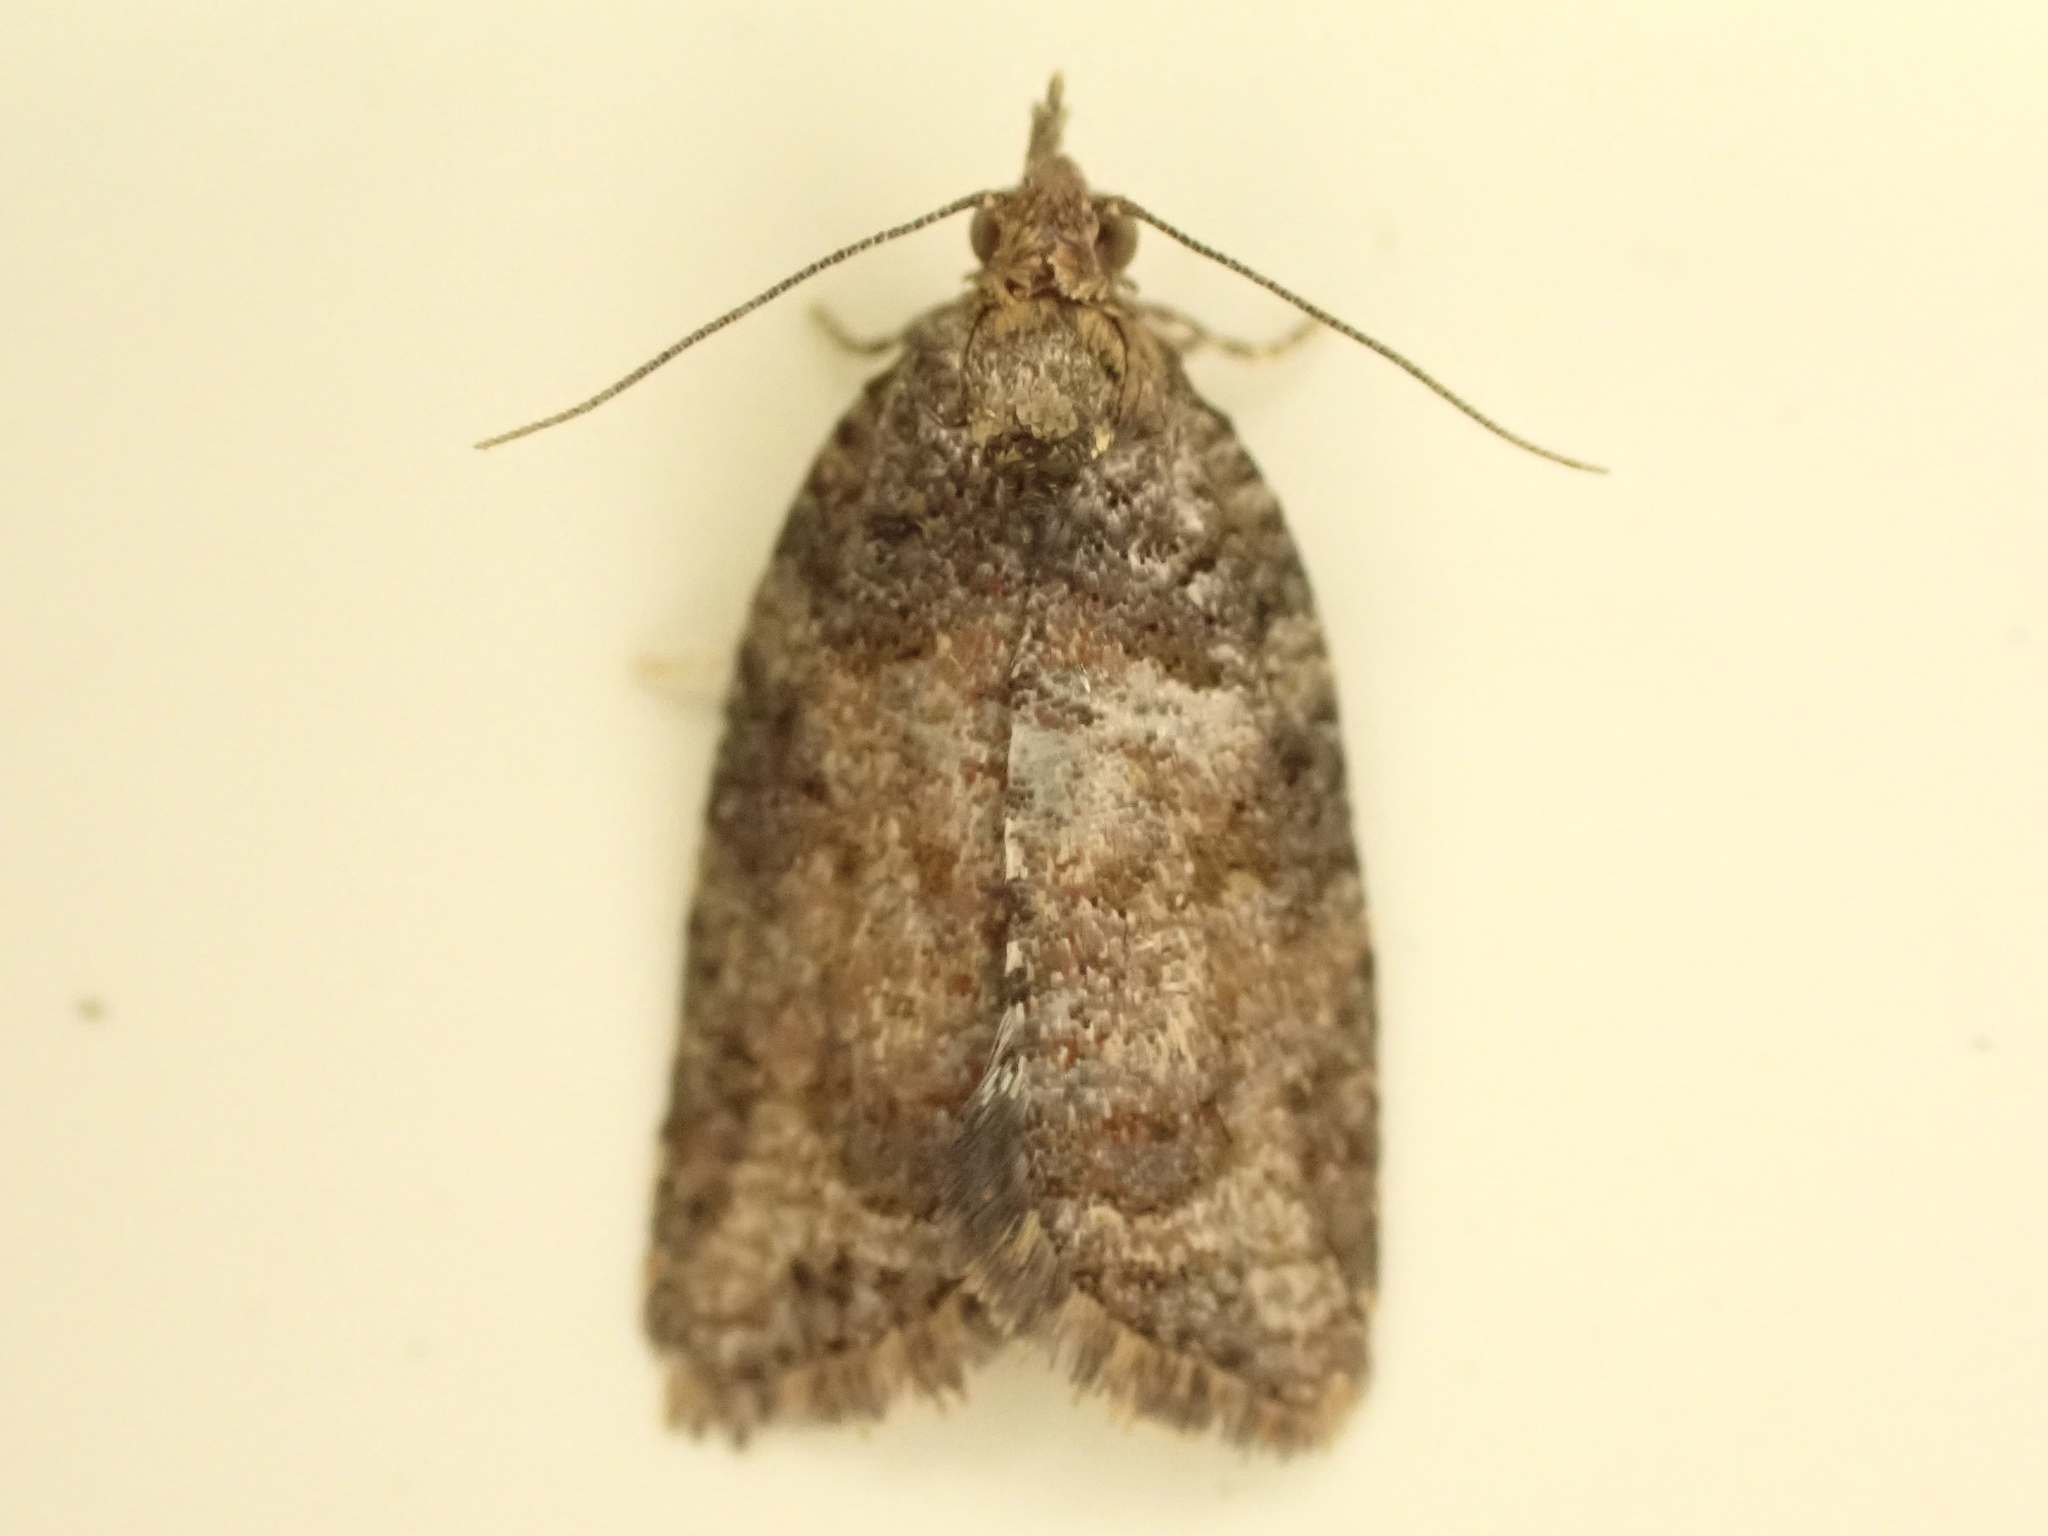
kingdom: Animalia
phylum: Arthropoda
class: Insecta
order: Lepidoptera
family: Tortricidae
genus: Capua
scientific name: Capua intractana
